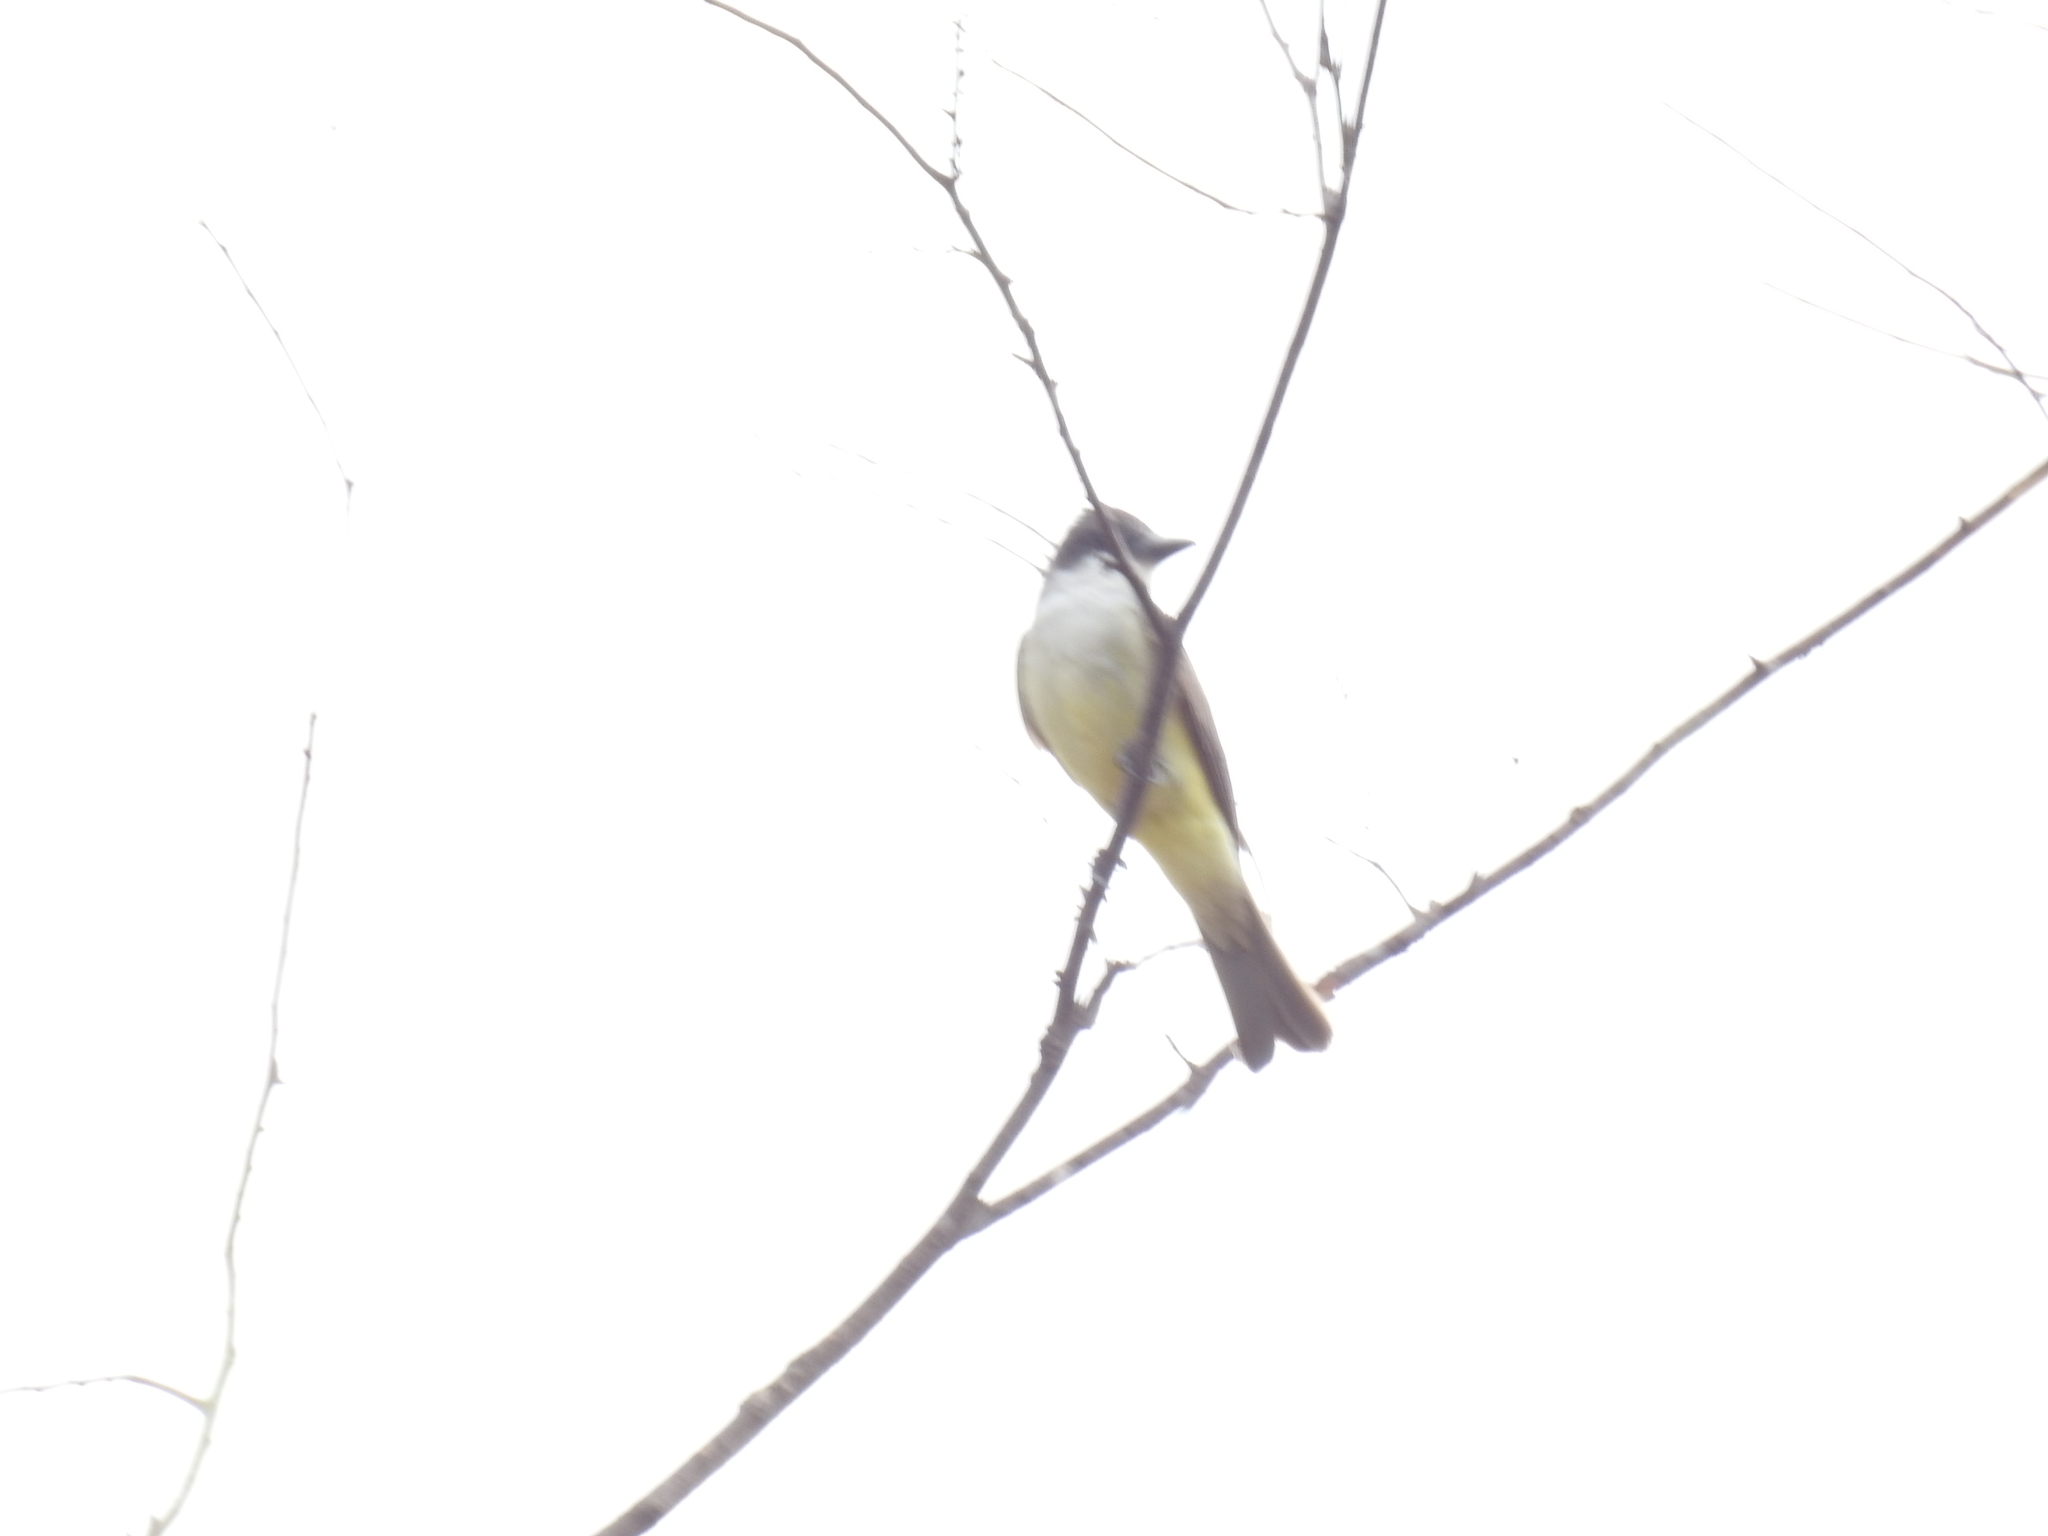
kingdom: Animalia
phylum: Chordata
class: Aves
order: Passeriformes
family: Tyrannidae
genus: Tyrannus
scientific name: Tyrannus crassirostris
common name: Thick-billed kingbird
